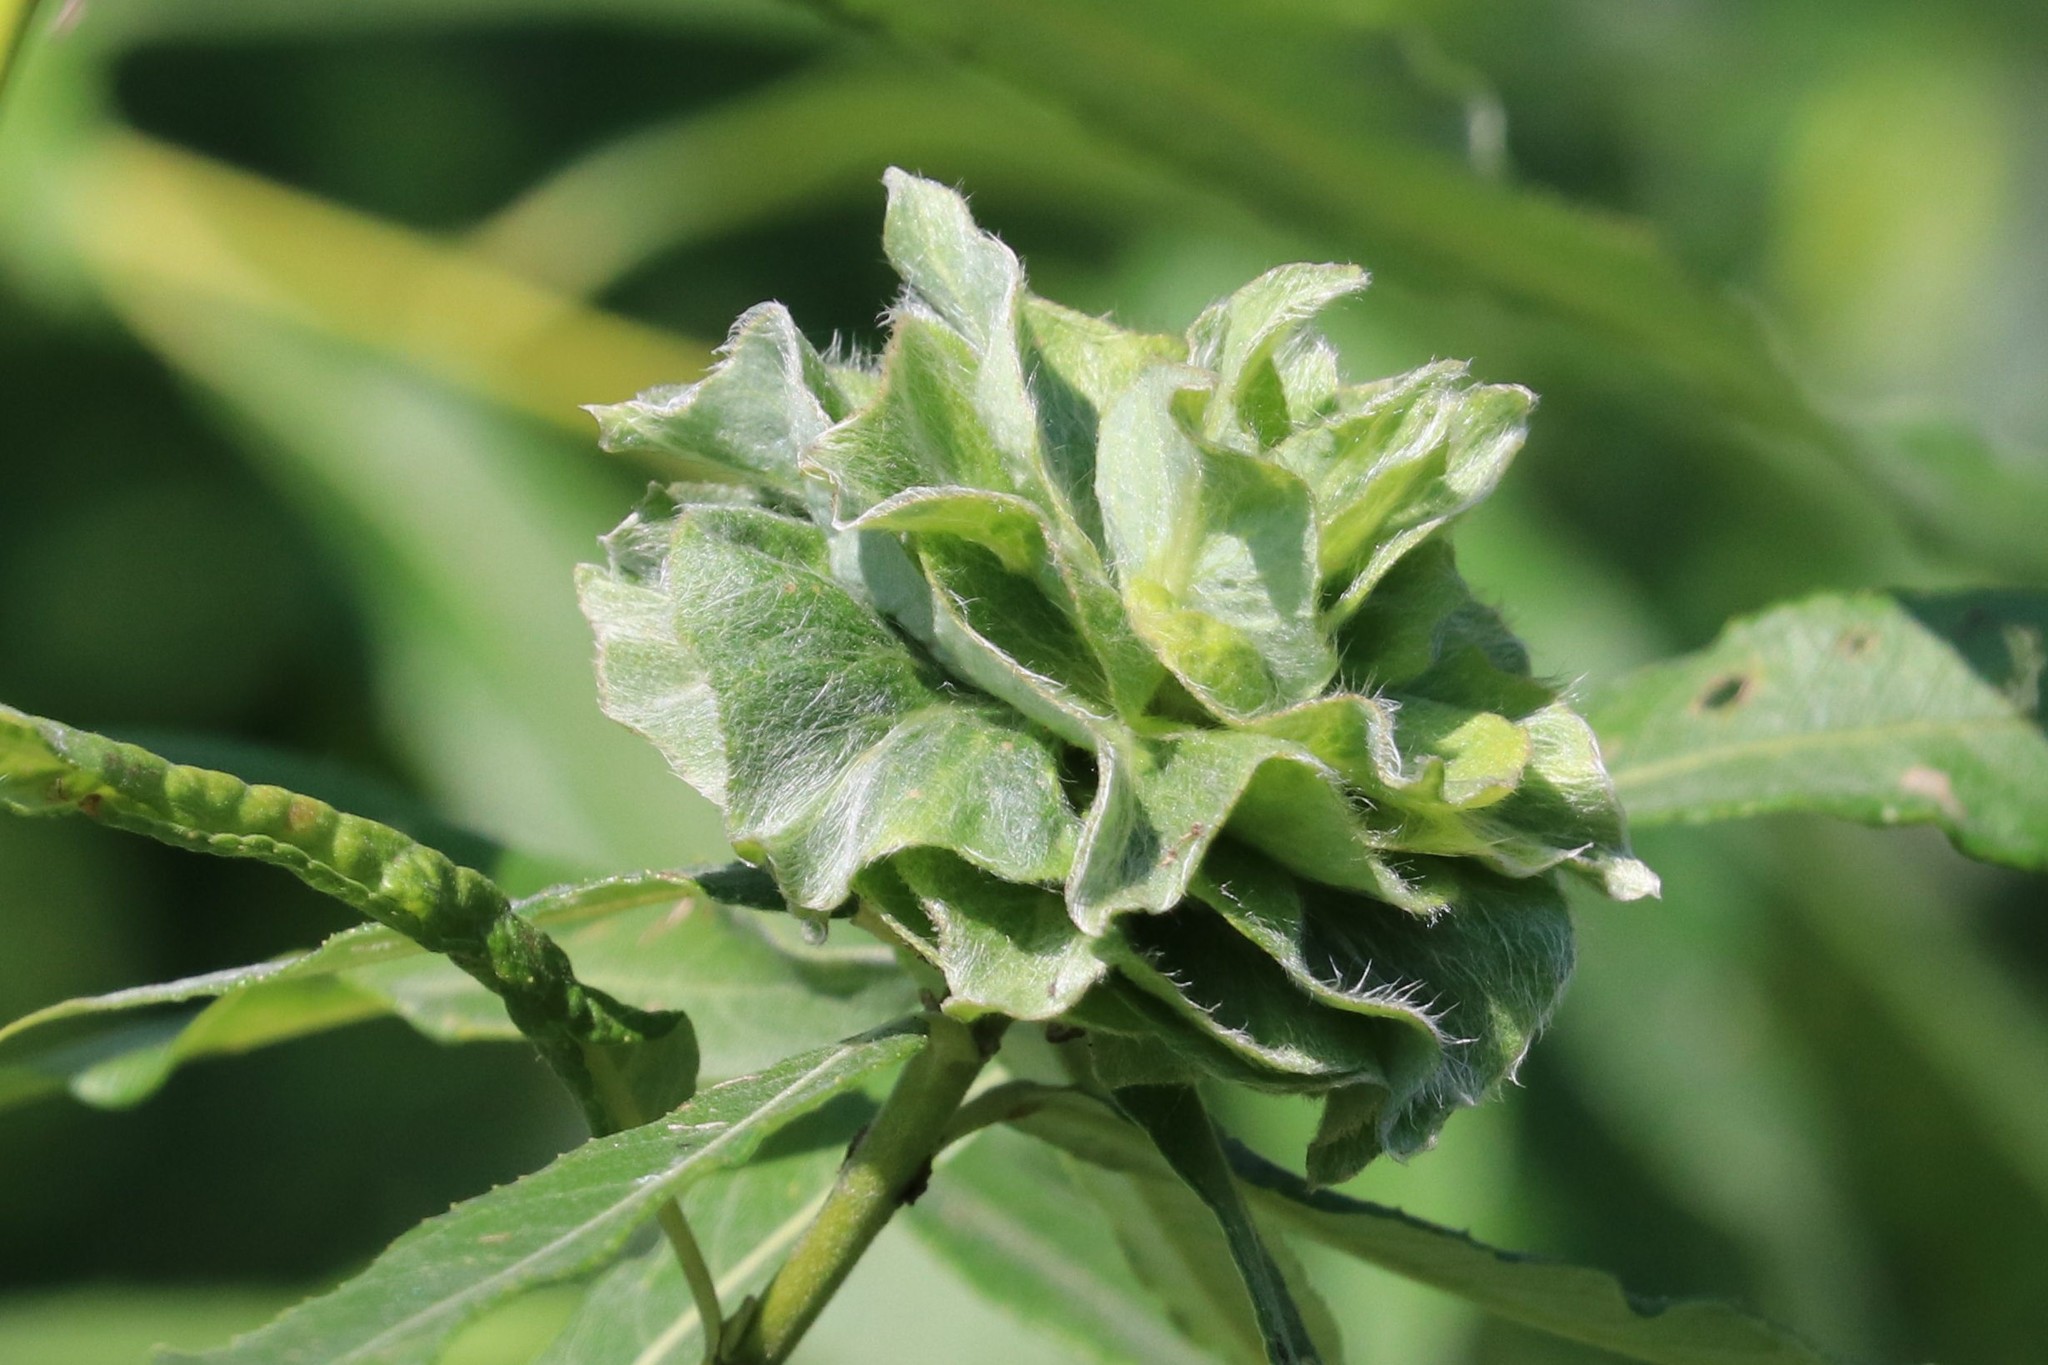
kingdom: Animalia
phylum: Arthropoda
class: Insecta
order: Diptera
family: Cecidomyiidae
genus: Rabdophaga
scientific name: Rabdophaga rosaria
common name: Willow rose gall midge
